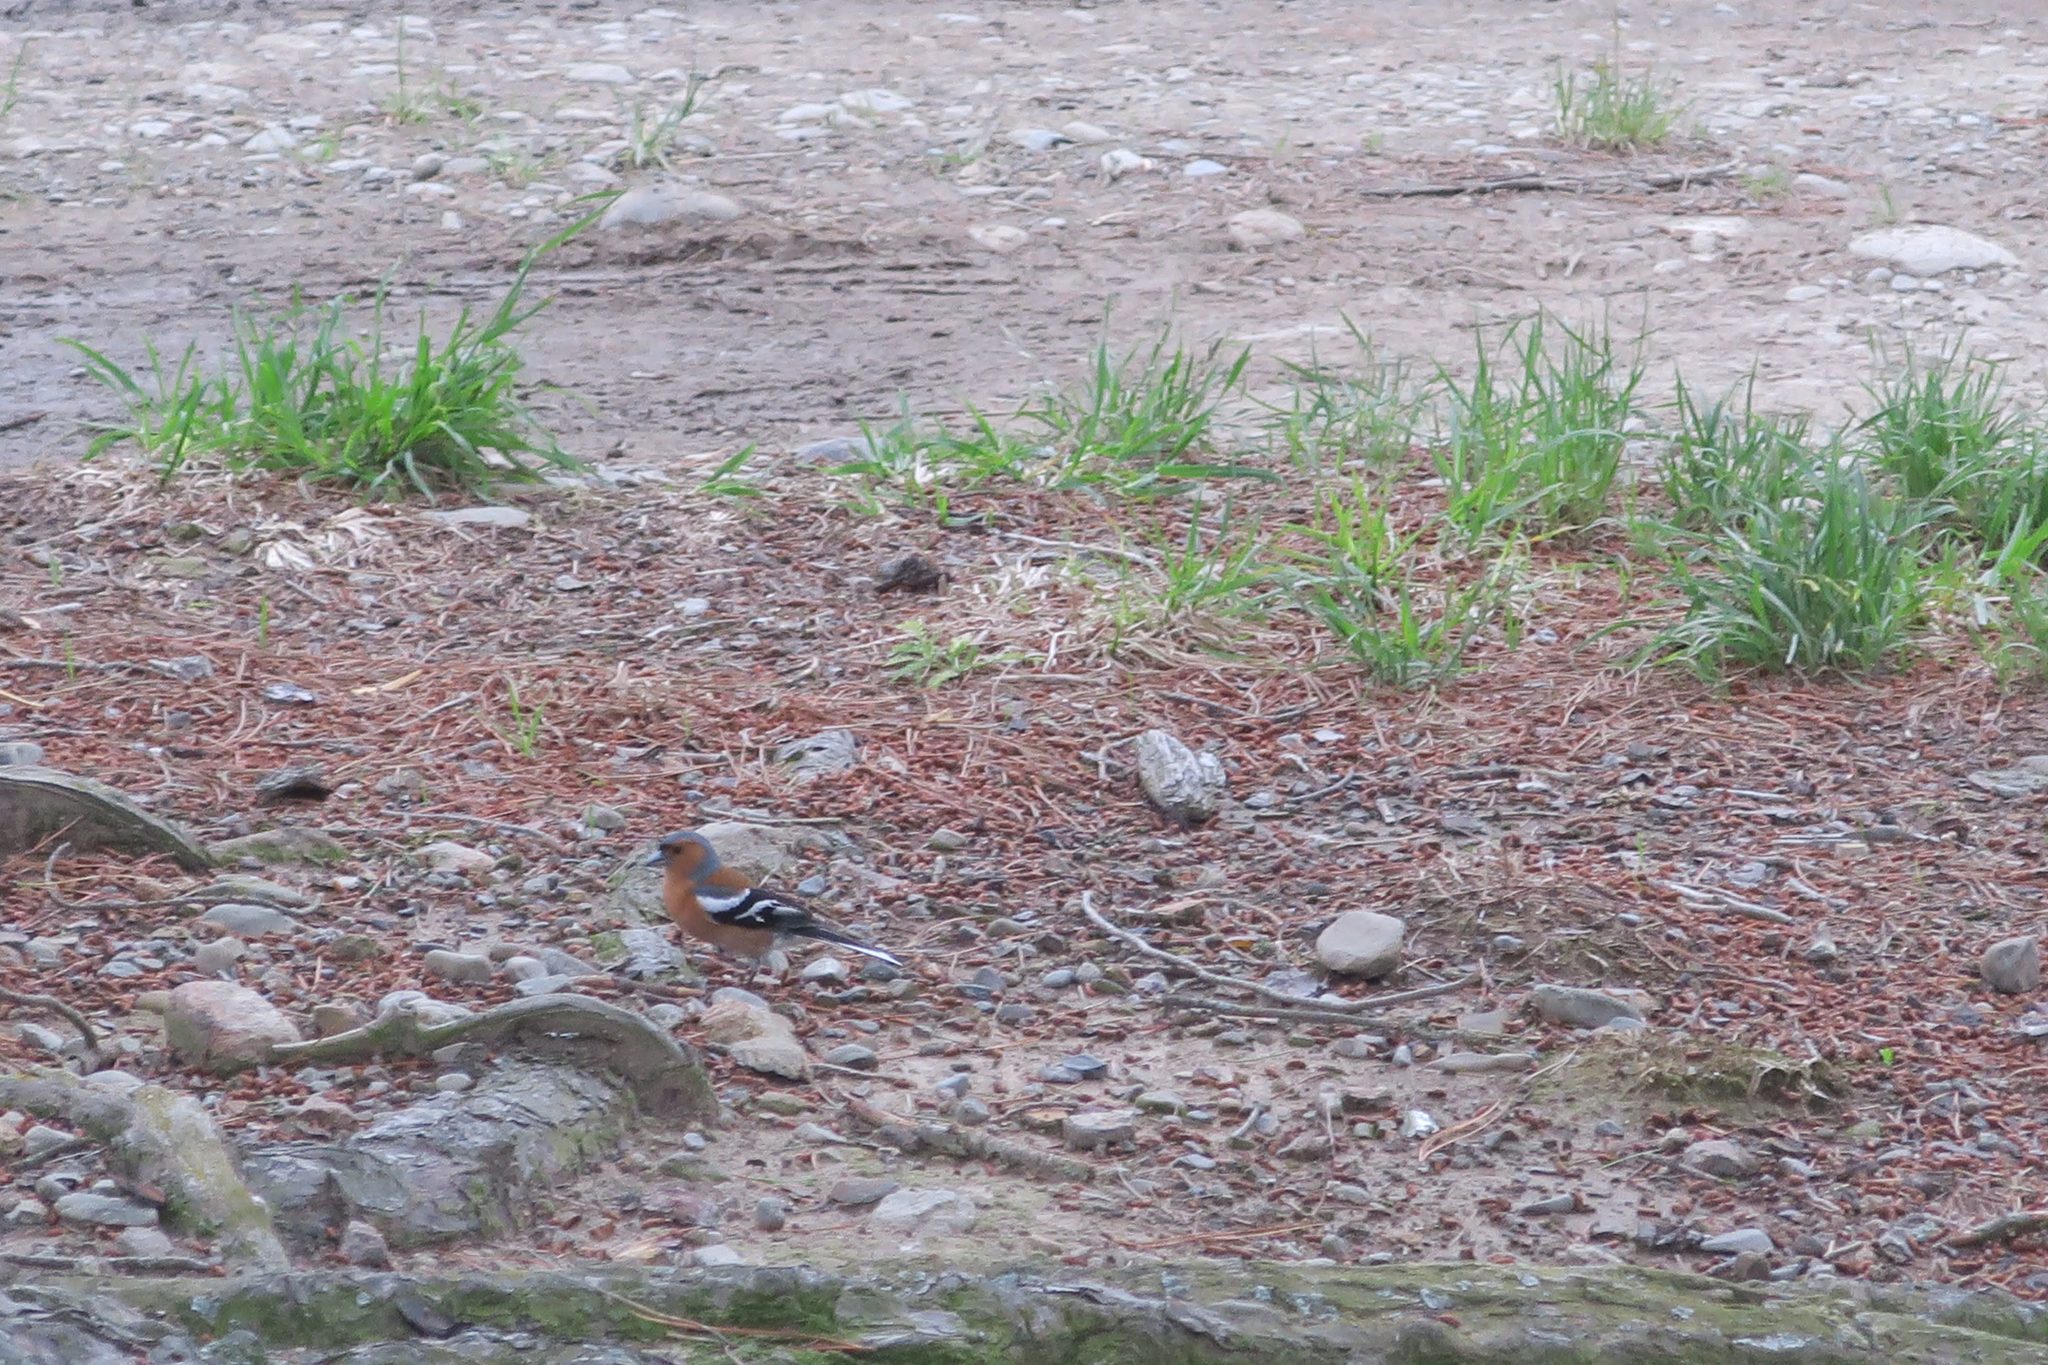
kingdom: Animalia
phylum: Chordata
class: Aves
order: Passeriformes
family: Fringillidae
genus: Fringilla
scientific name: Fringilla coelebs
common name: Common chaffinch
